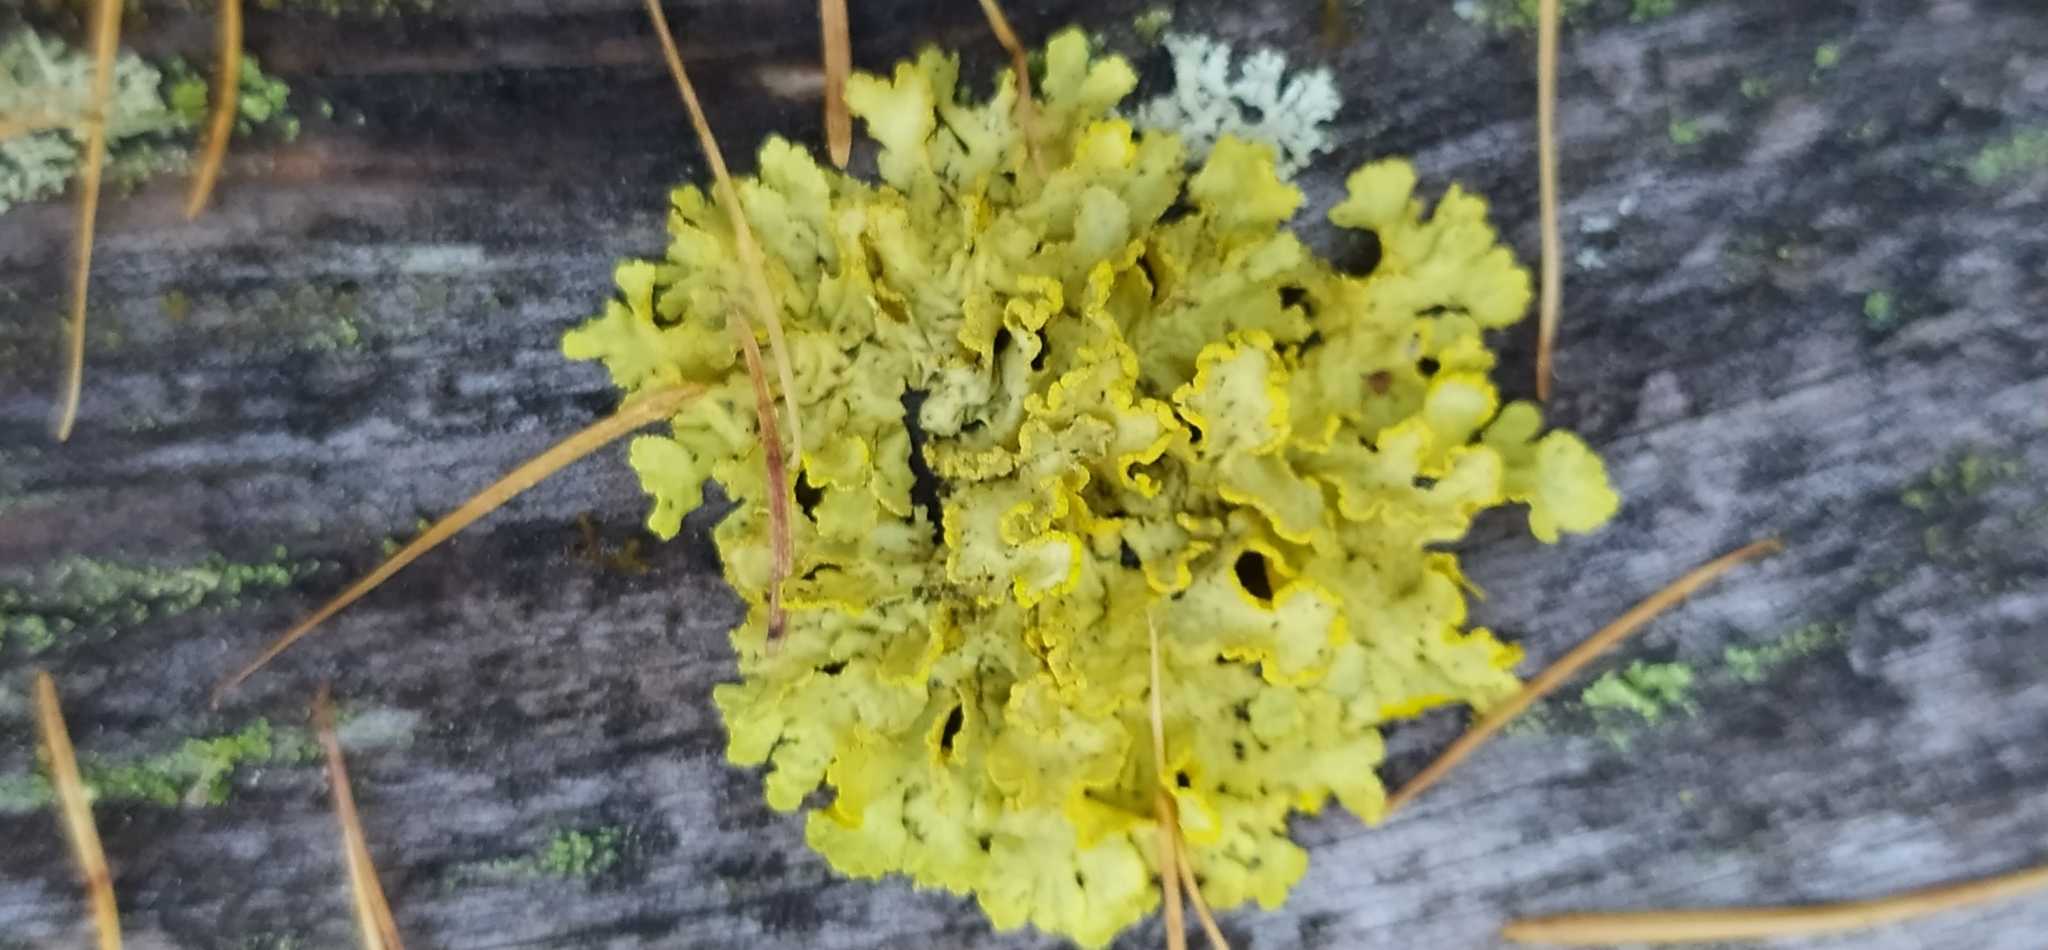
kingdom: Fungi
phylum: Ascomycota
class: Lecanoromycetes
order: Lecanorales
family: Parmeliaceae
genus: Vulpicida
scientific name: Vulpicida pinastri
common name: Powdered sunshine lichen
